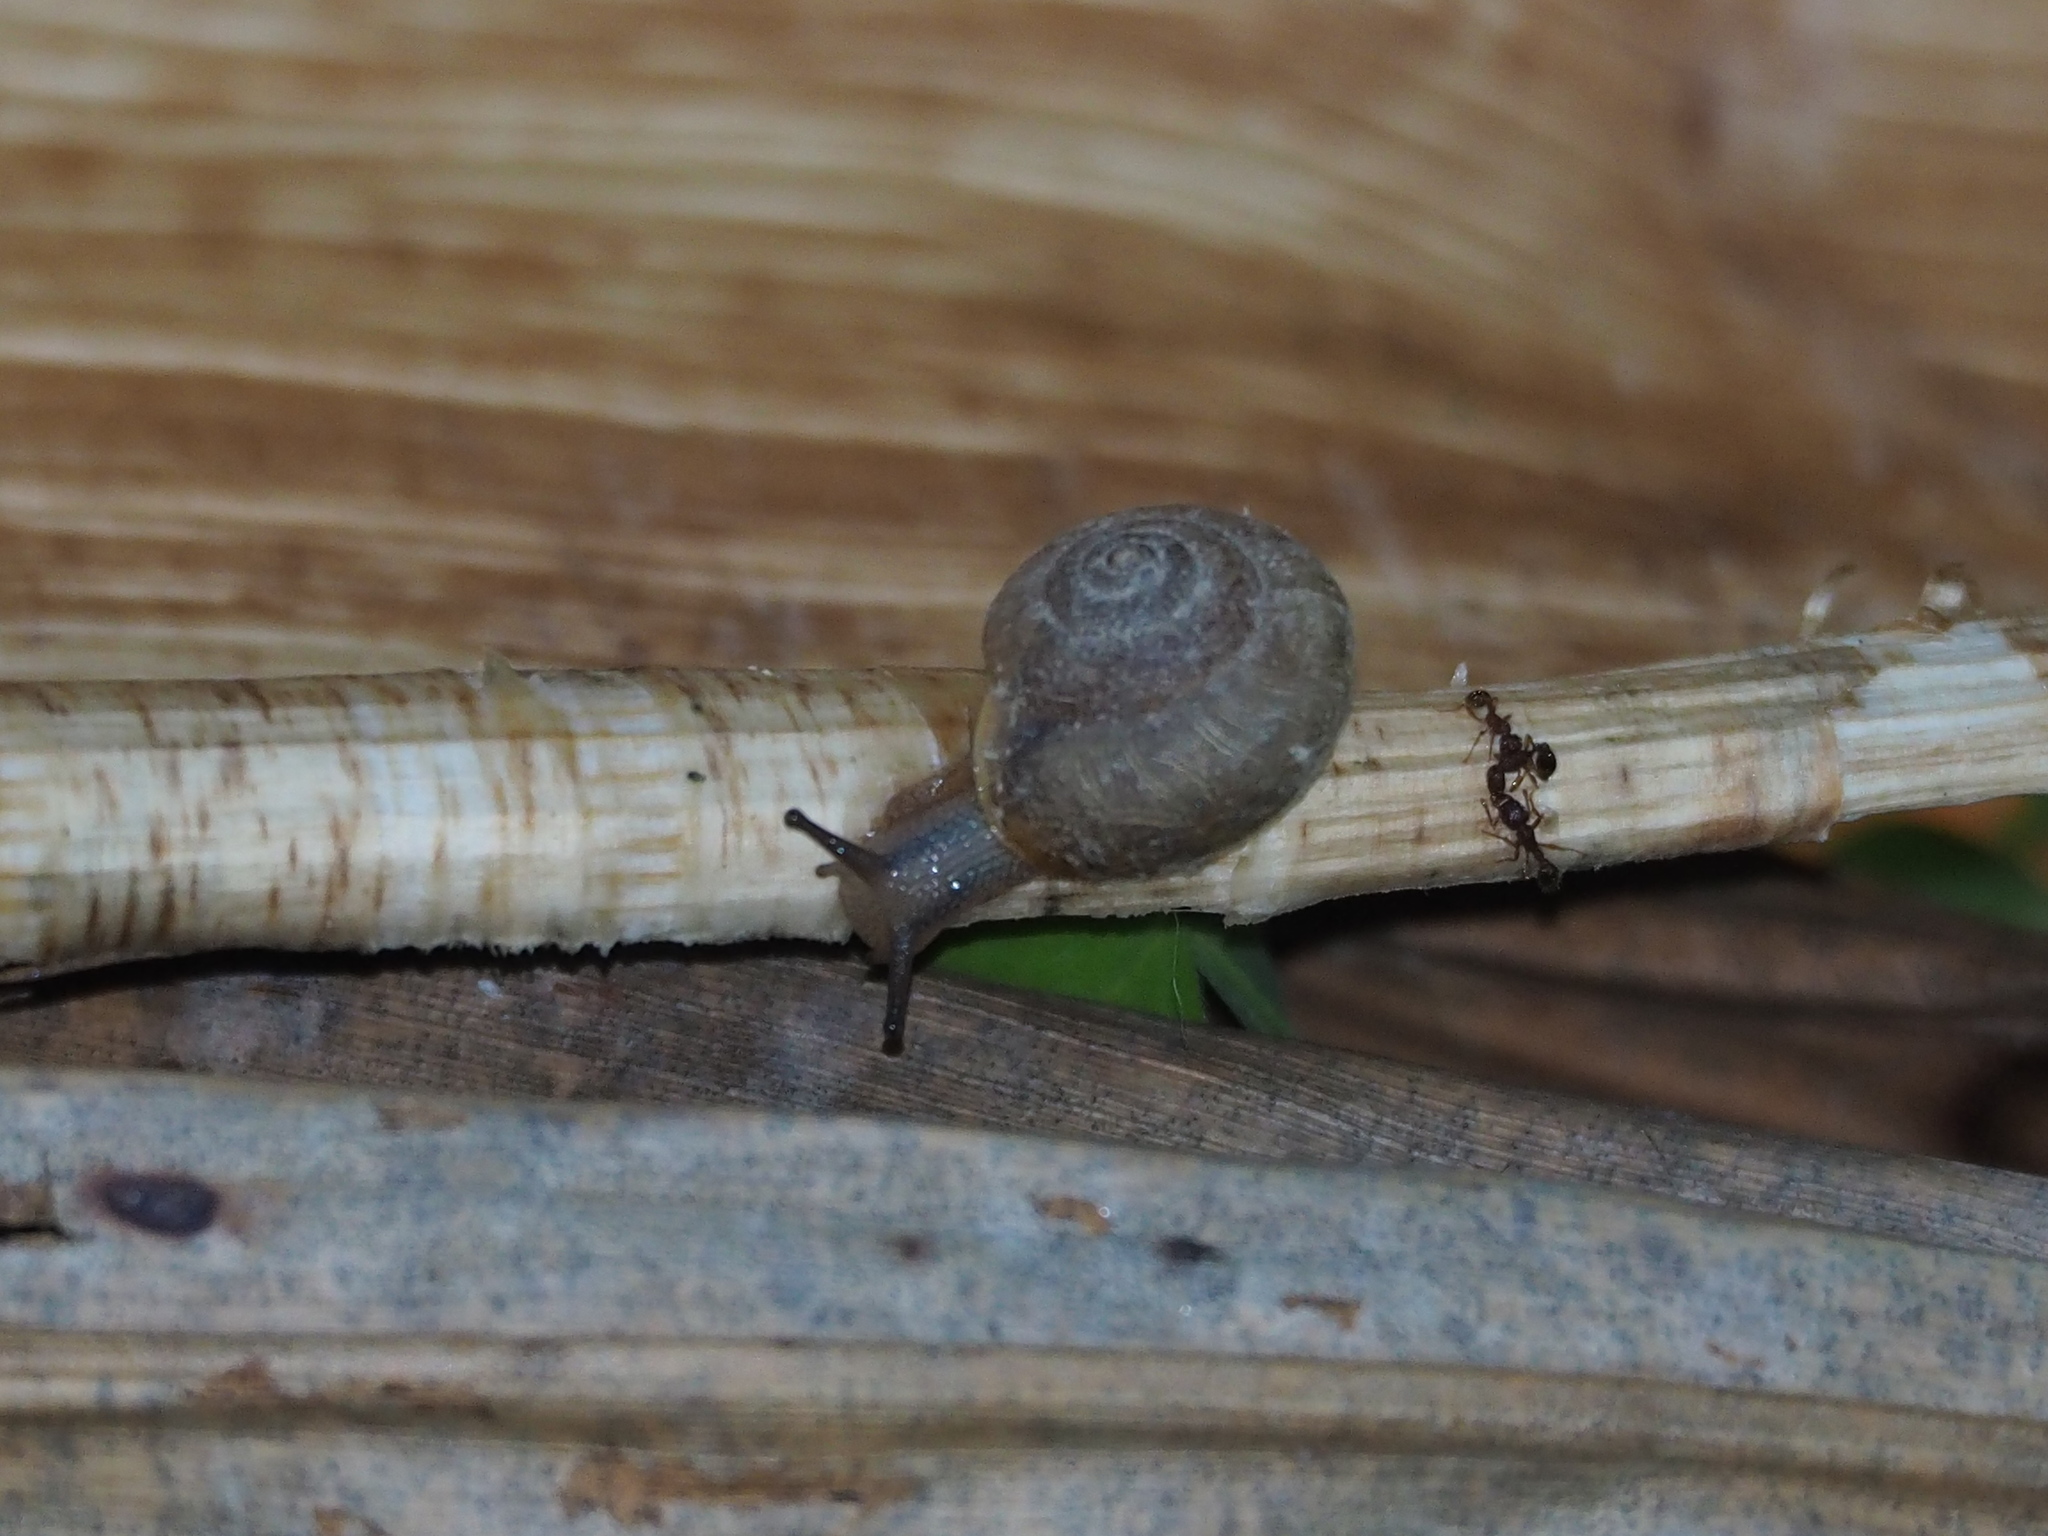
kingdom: Animalia
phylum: Mollusca
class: Gastropoda
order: Stylommatophora
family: Camaenidae
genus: Bradybaena
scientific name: Bradybaena similaris
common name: Asian trampsnail
